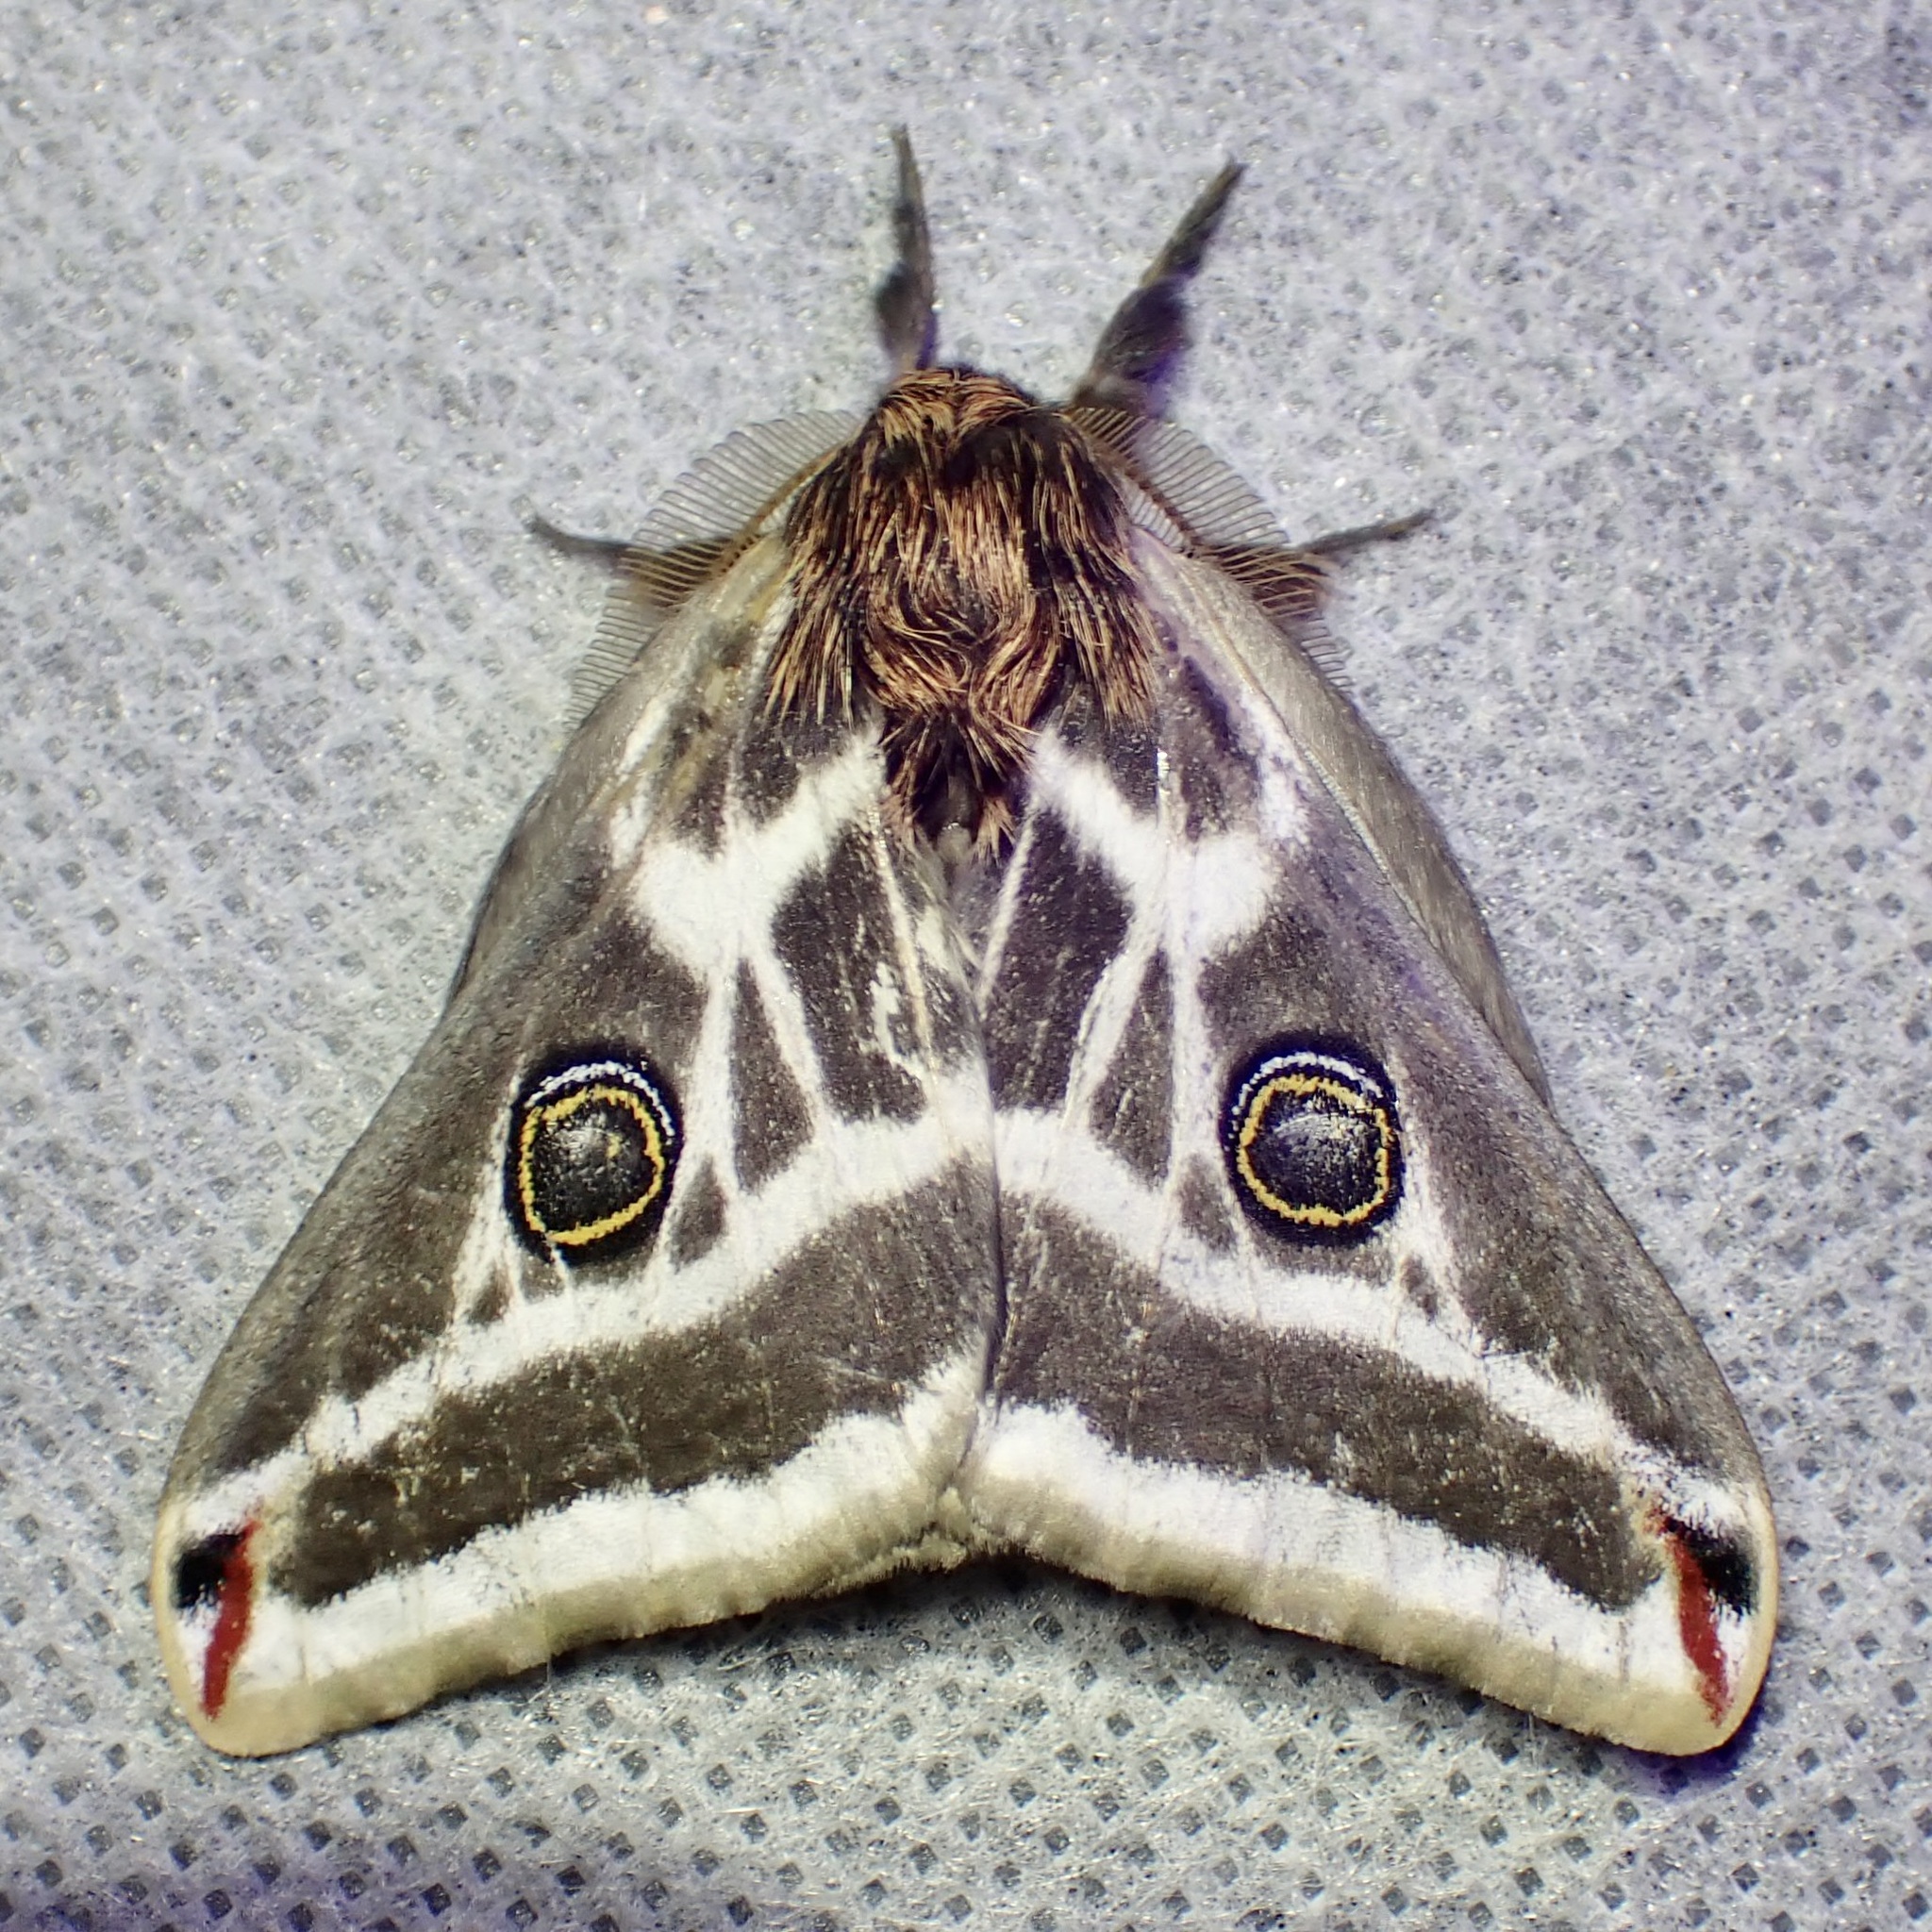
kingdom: Animalia
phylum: Arthropoda
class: Insecta
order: Lepidoptera
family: Saturniidae
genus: Saturnia
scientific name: Saturnia anona
